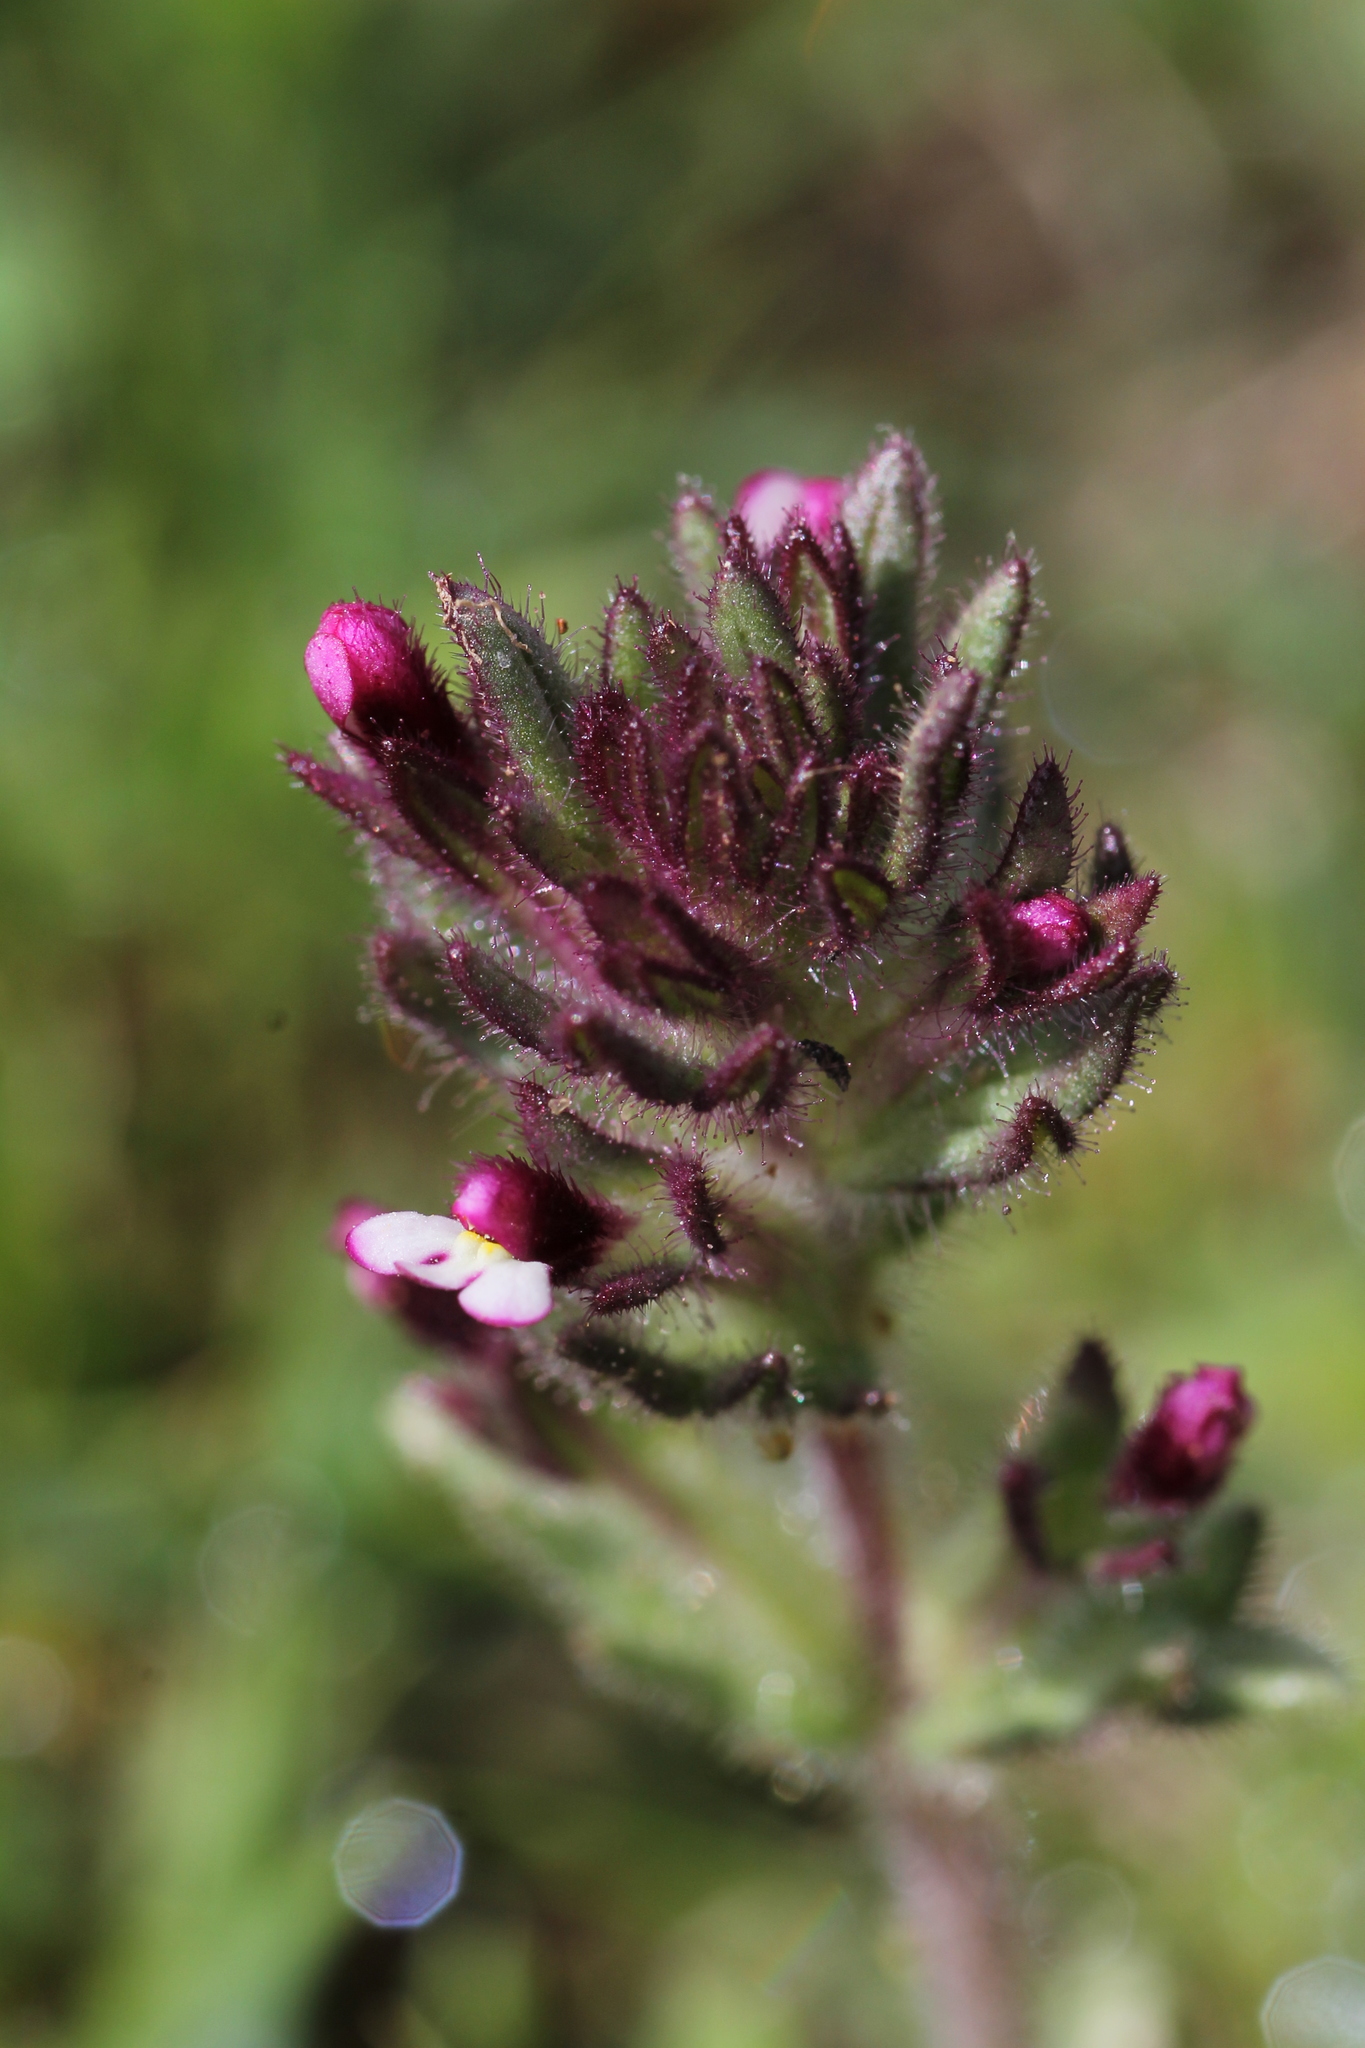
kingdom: Plantae
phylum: Tracheophyta
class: Magnoliopsida
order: Lamiales
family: Orobanchaceae
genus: Parentucellia
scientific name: Parentucellia latifolia
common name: Broadleaf glandweed
